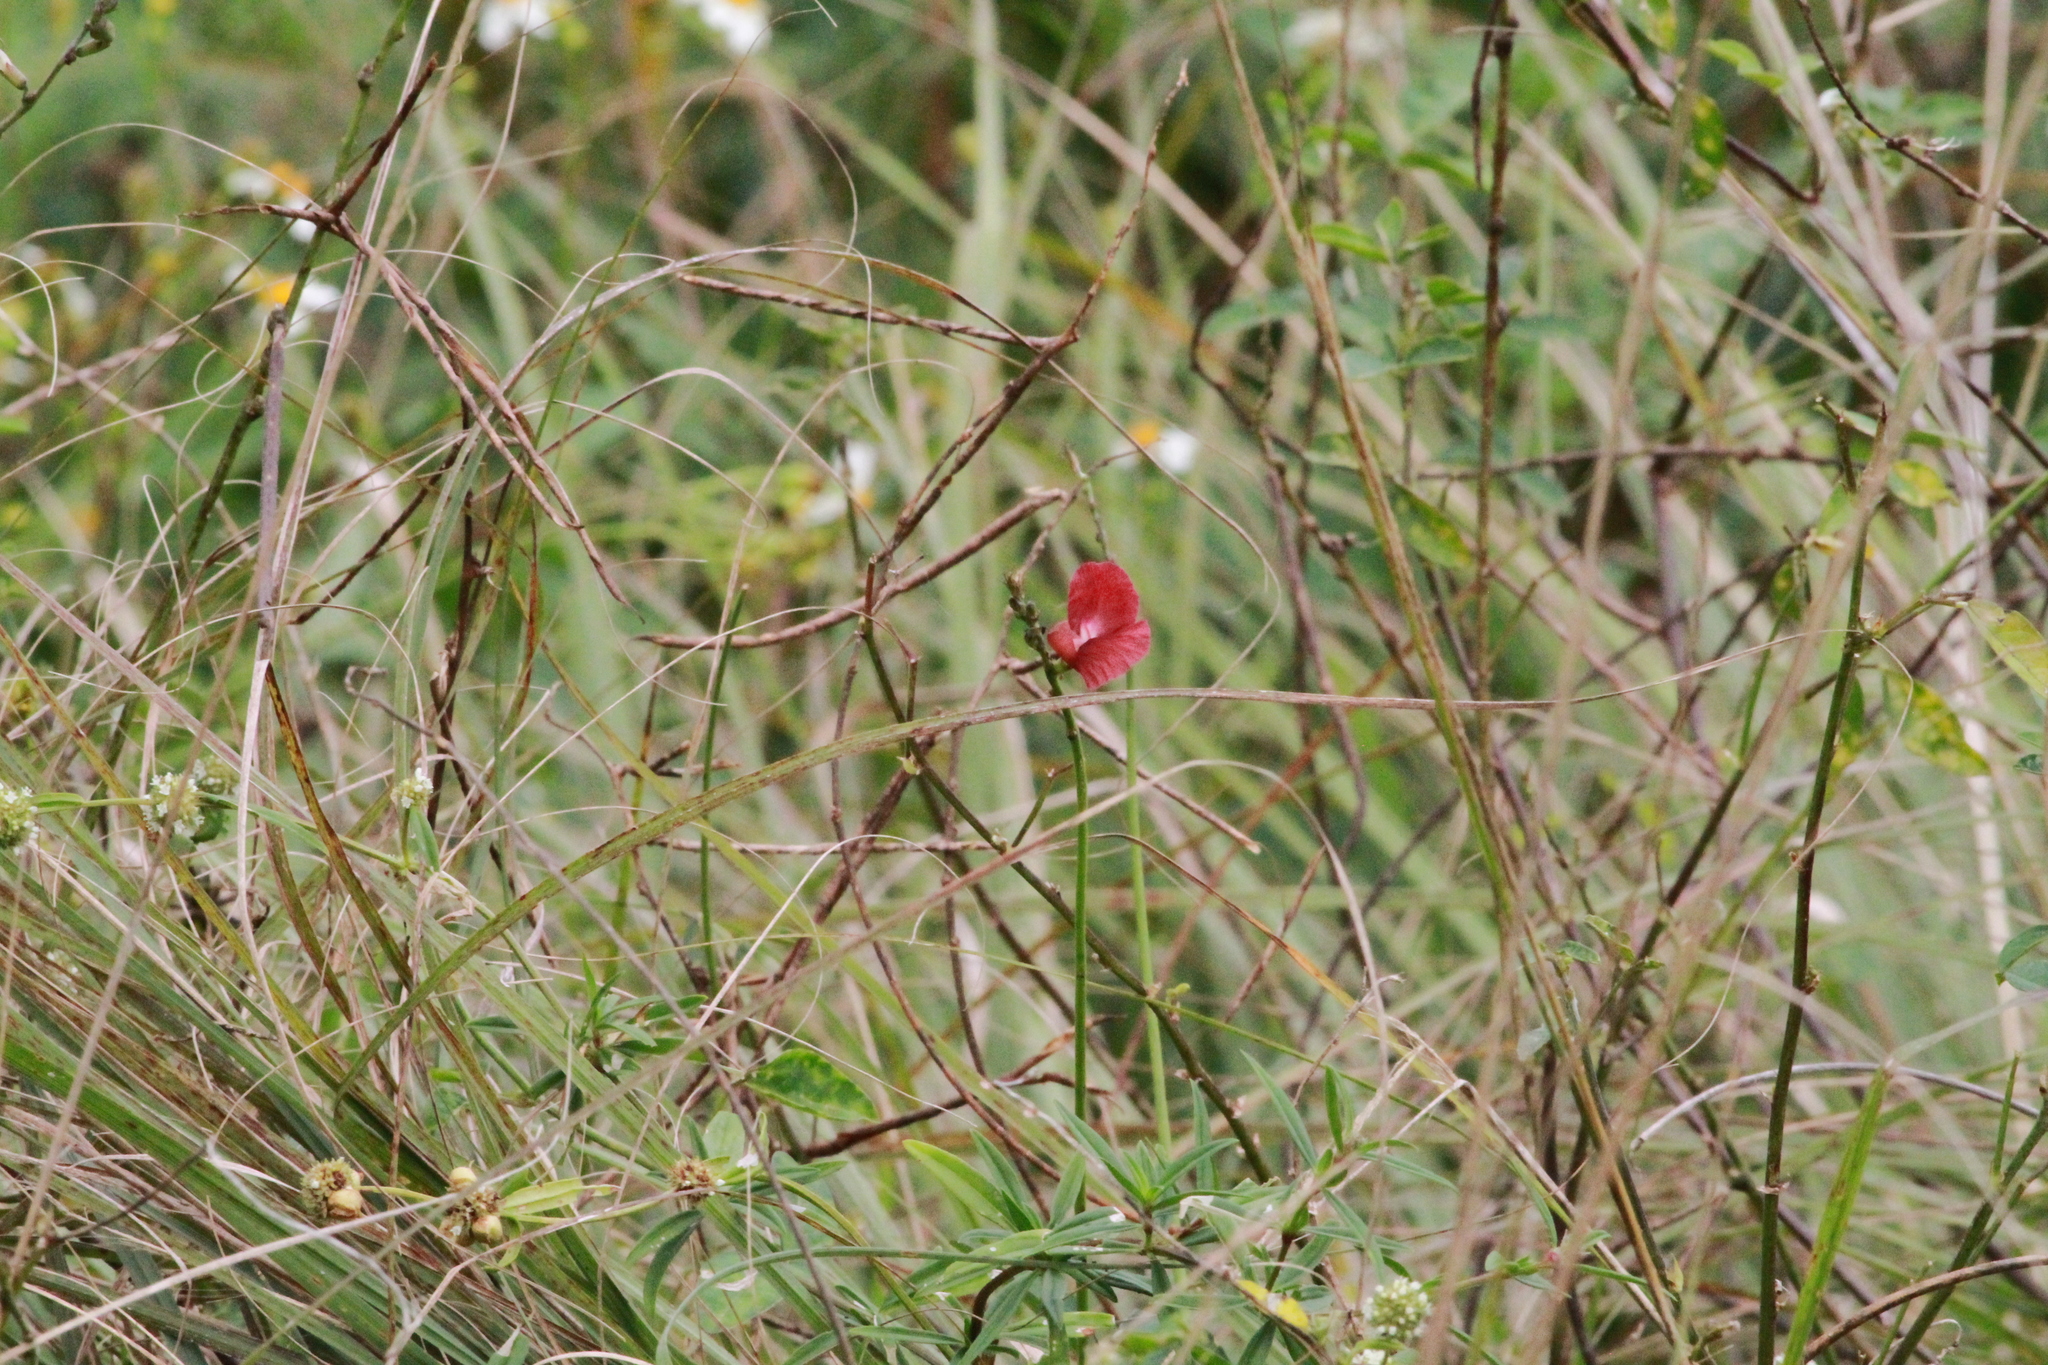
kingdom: Plantae
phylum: Tracheophyta
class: Magnoliopsida
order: Fabales
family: Fabaceae
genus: Macroptilium
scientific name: Macroptilium lathyroides
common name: Wild bushbean
